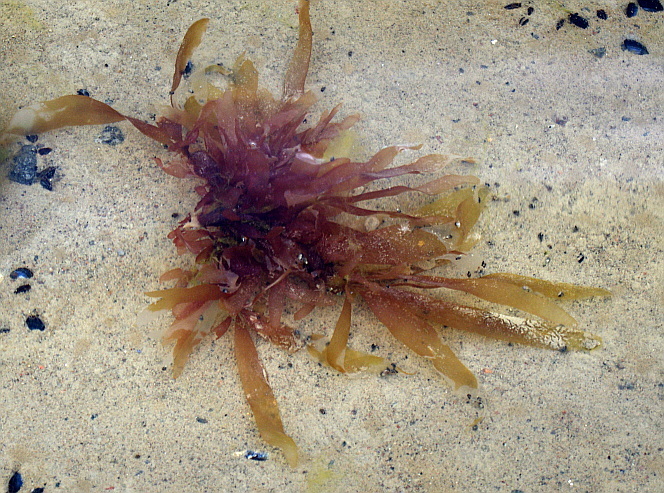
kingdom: Plantae
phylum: Rhodophyta
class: Florideophyceae
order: Palmariales
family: Palmariaceae
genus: Palmaria
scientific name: Palmaria palmata
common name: Dulse
